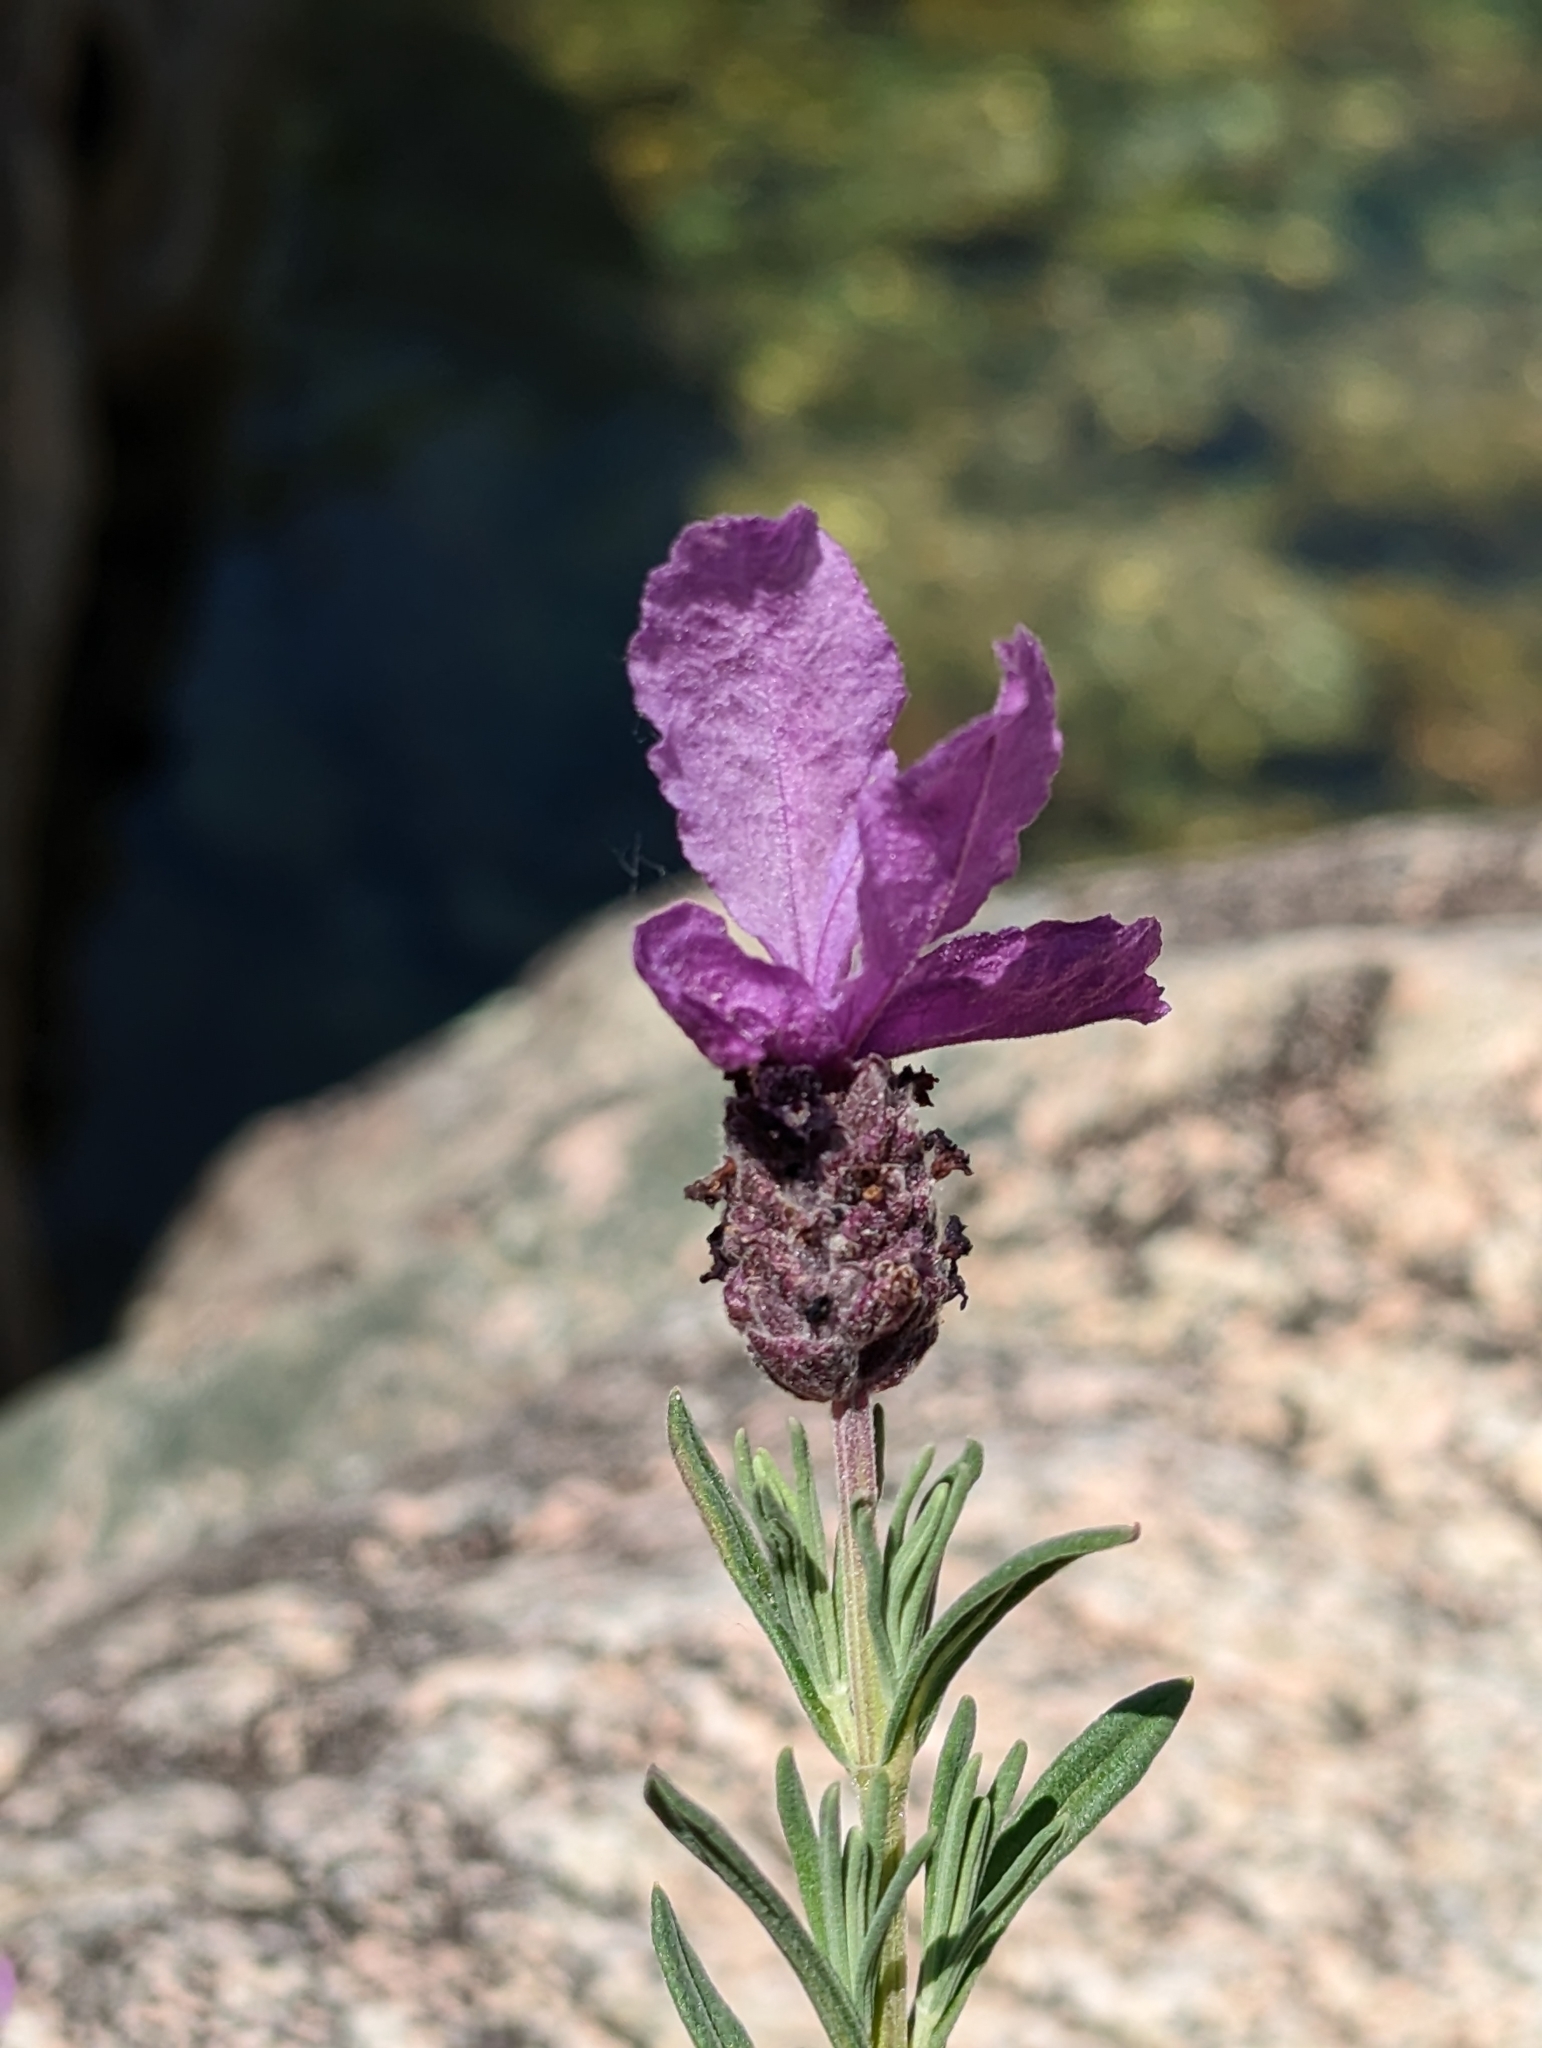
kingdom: Plantae
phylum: Tracheophyta
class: Magnoliopsida
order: Lamiales
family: Lamiaceae
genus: Lavandula
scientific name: Lavandula stoechas
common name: French lavender
